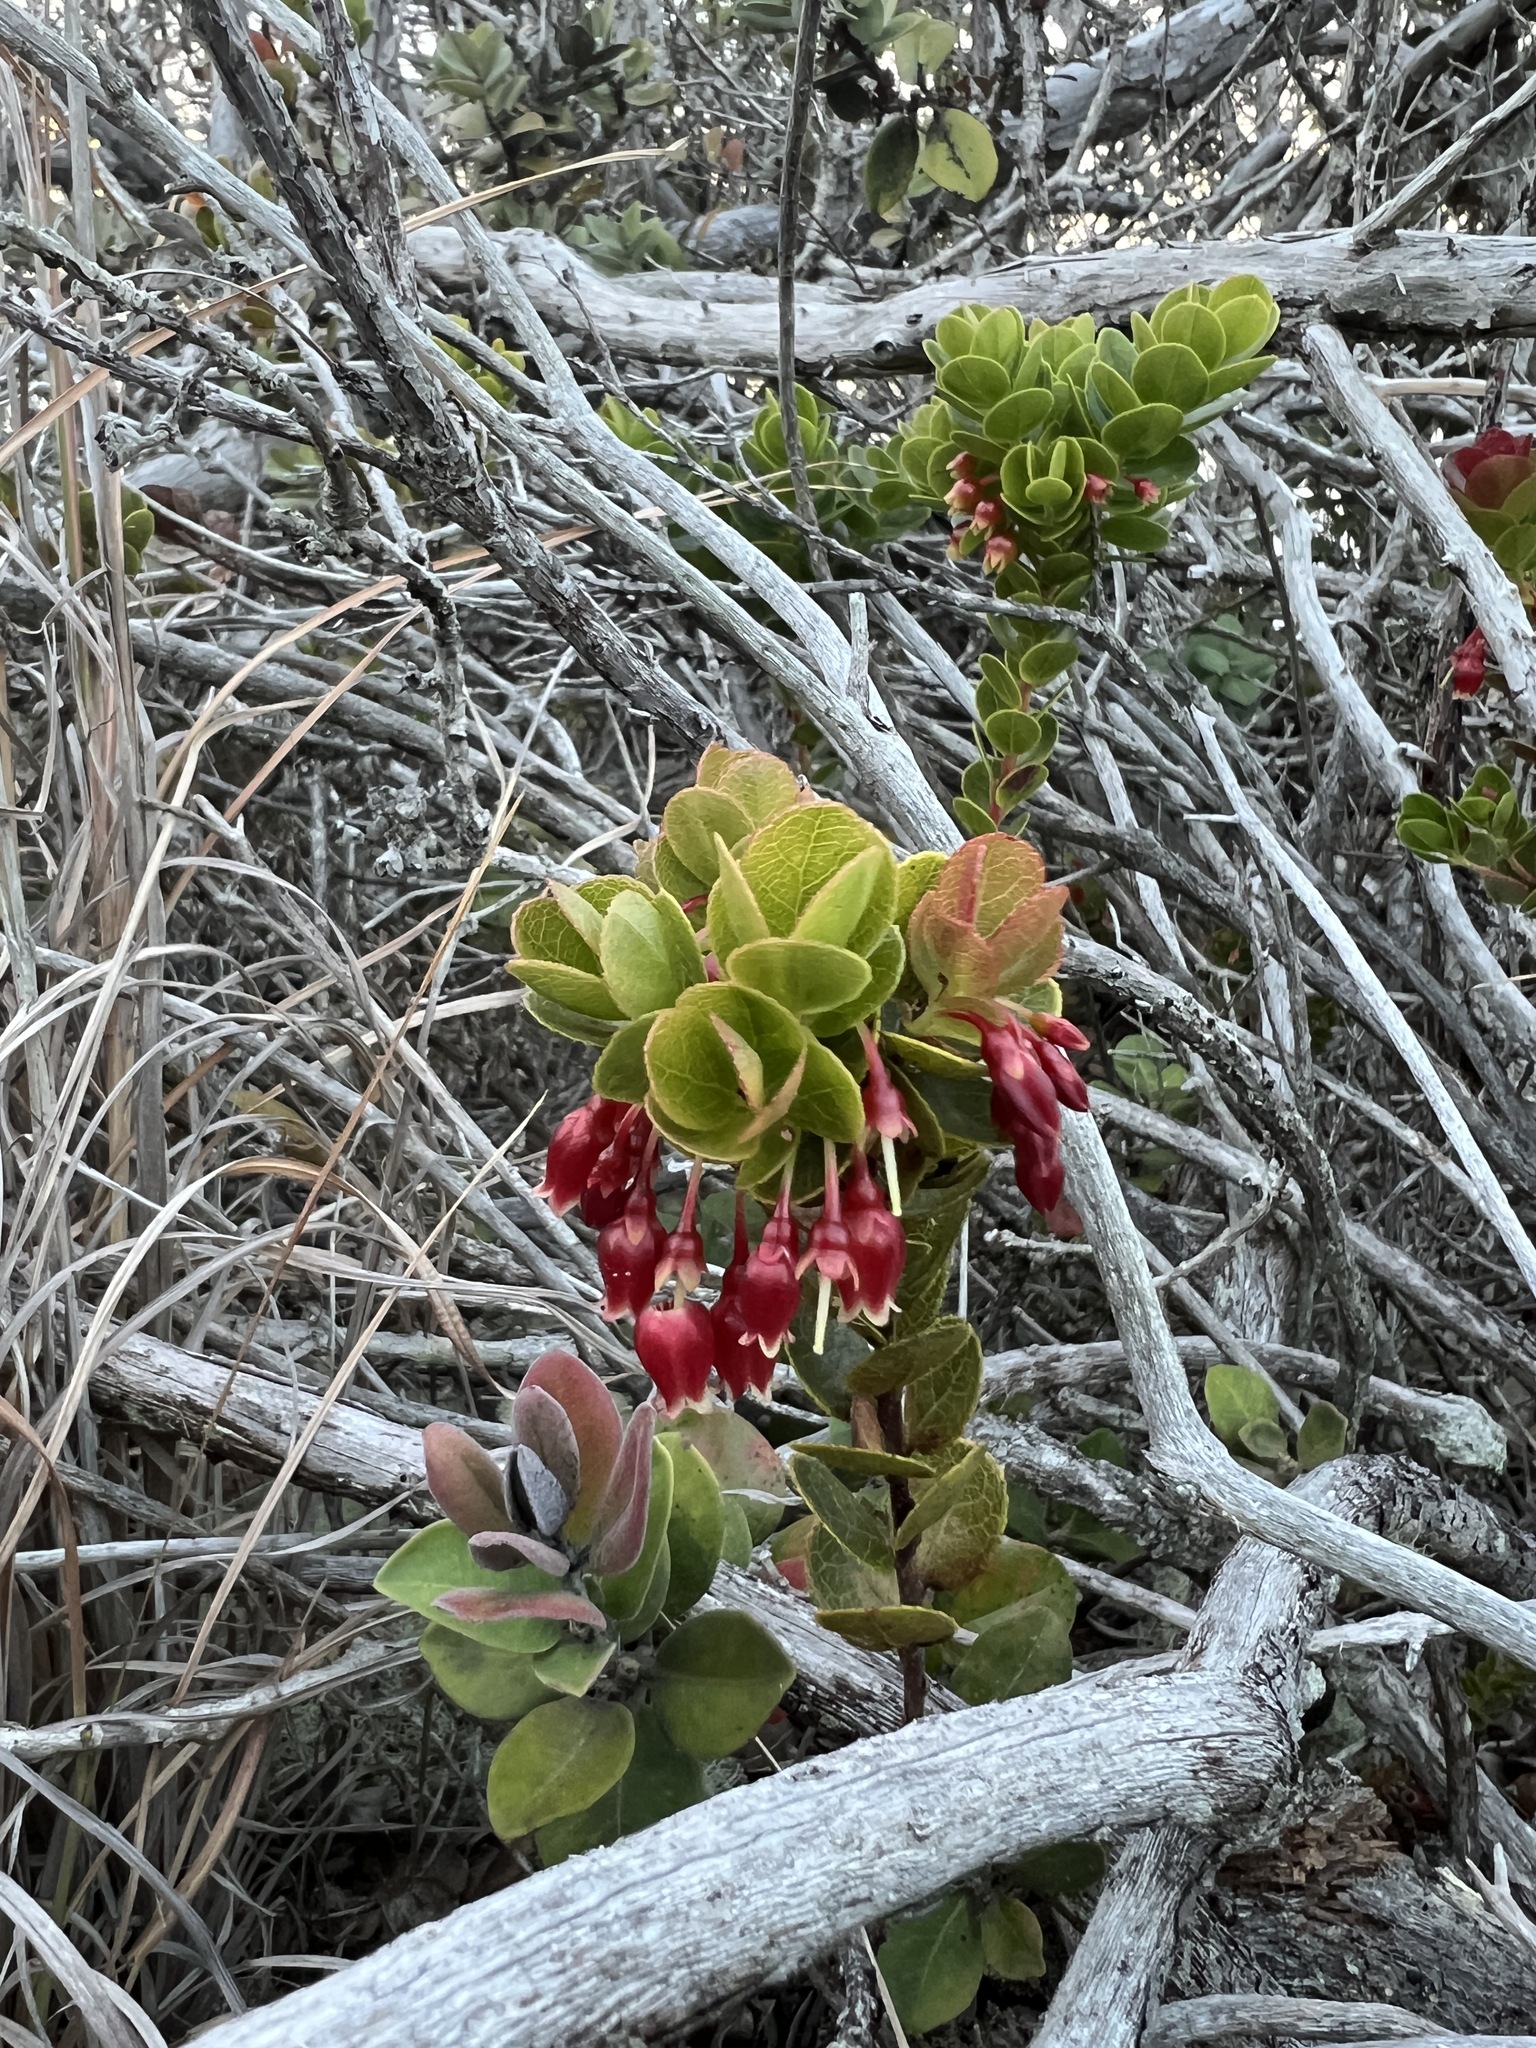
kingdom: Plantae
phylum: Tracheophyta
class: Magnoliopsida
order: Ericales
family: Ericaceae
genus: Vaccinium
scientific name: Vaccinium reticulatum
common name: Ohelo
